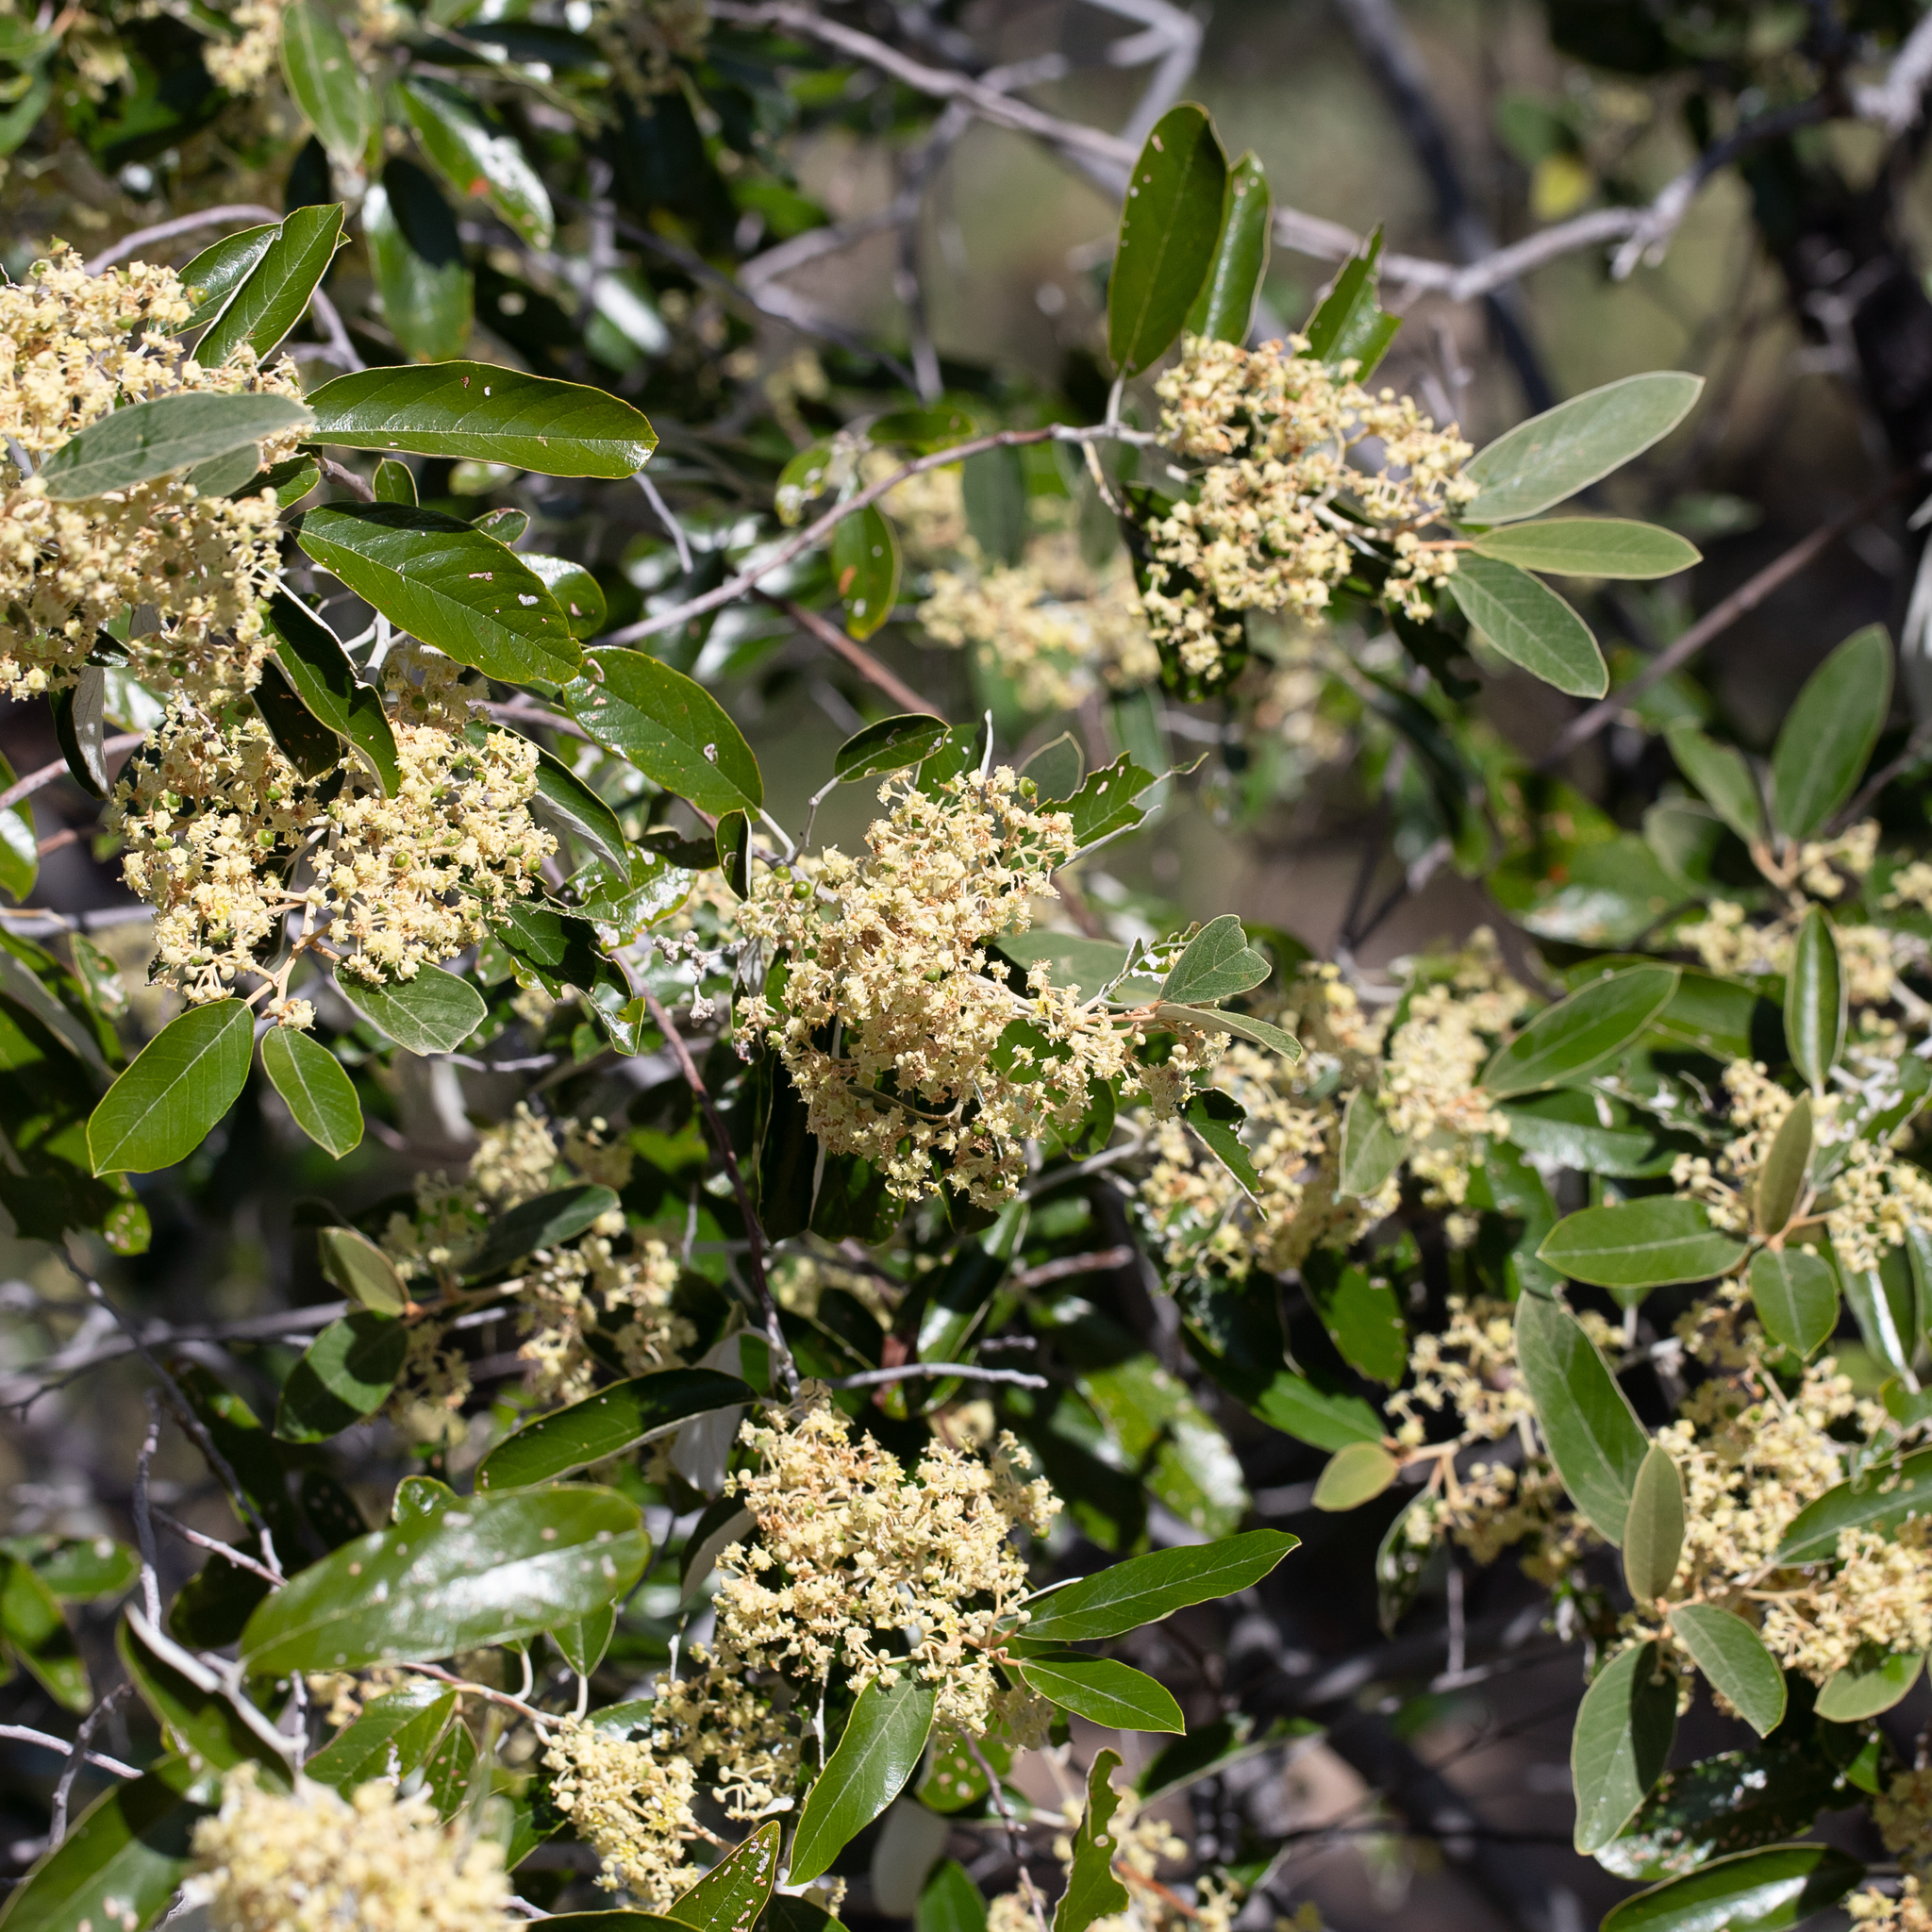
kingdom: Plantae
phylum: Tracheophyta
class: Magnoliopsida
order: Rosales
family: Rhamnaceae
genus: Alphitonia
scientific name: Alphitonia excelsa
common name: Red ash
